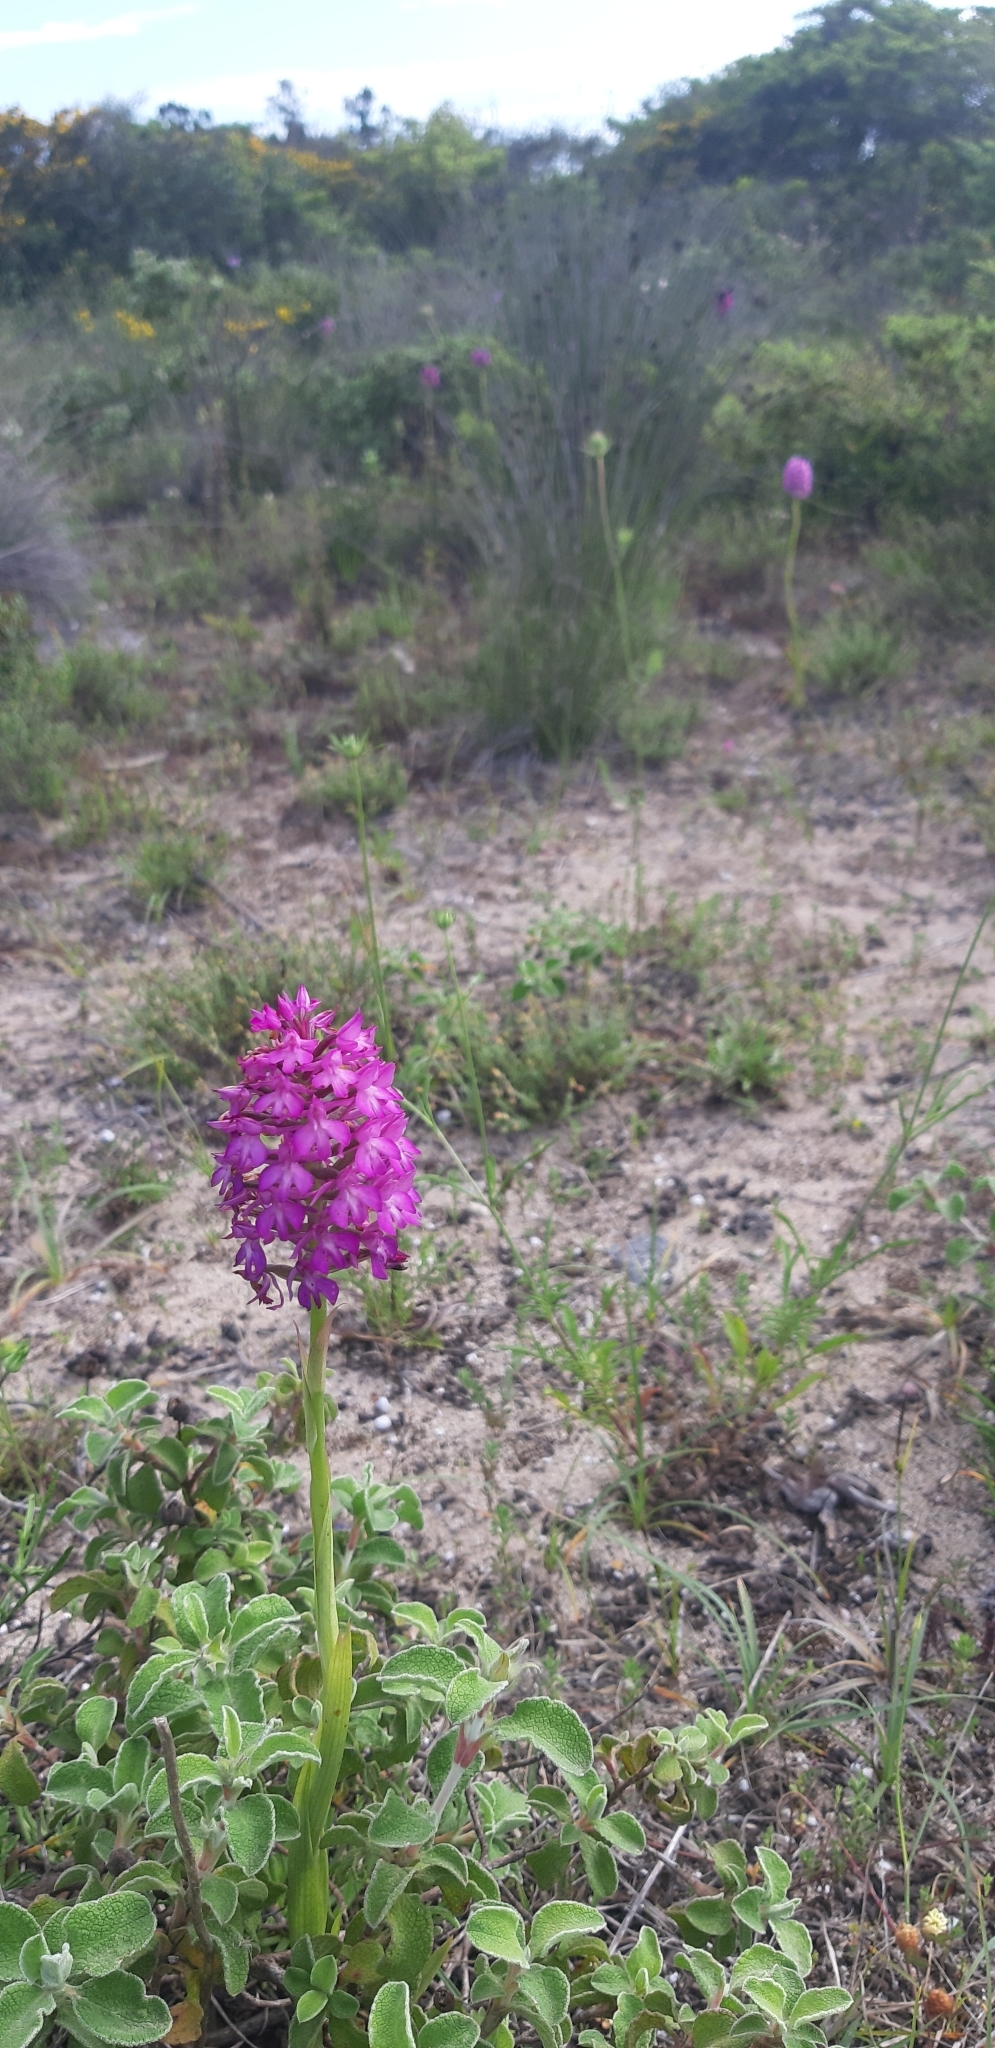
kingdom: Plantae
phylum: Tracheophyta
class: Liliopsida
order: Asparagales
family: Orchidaceae
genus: Anacamptis
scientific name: Anacamptis pyramidalis
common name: Pyramidal orchid
